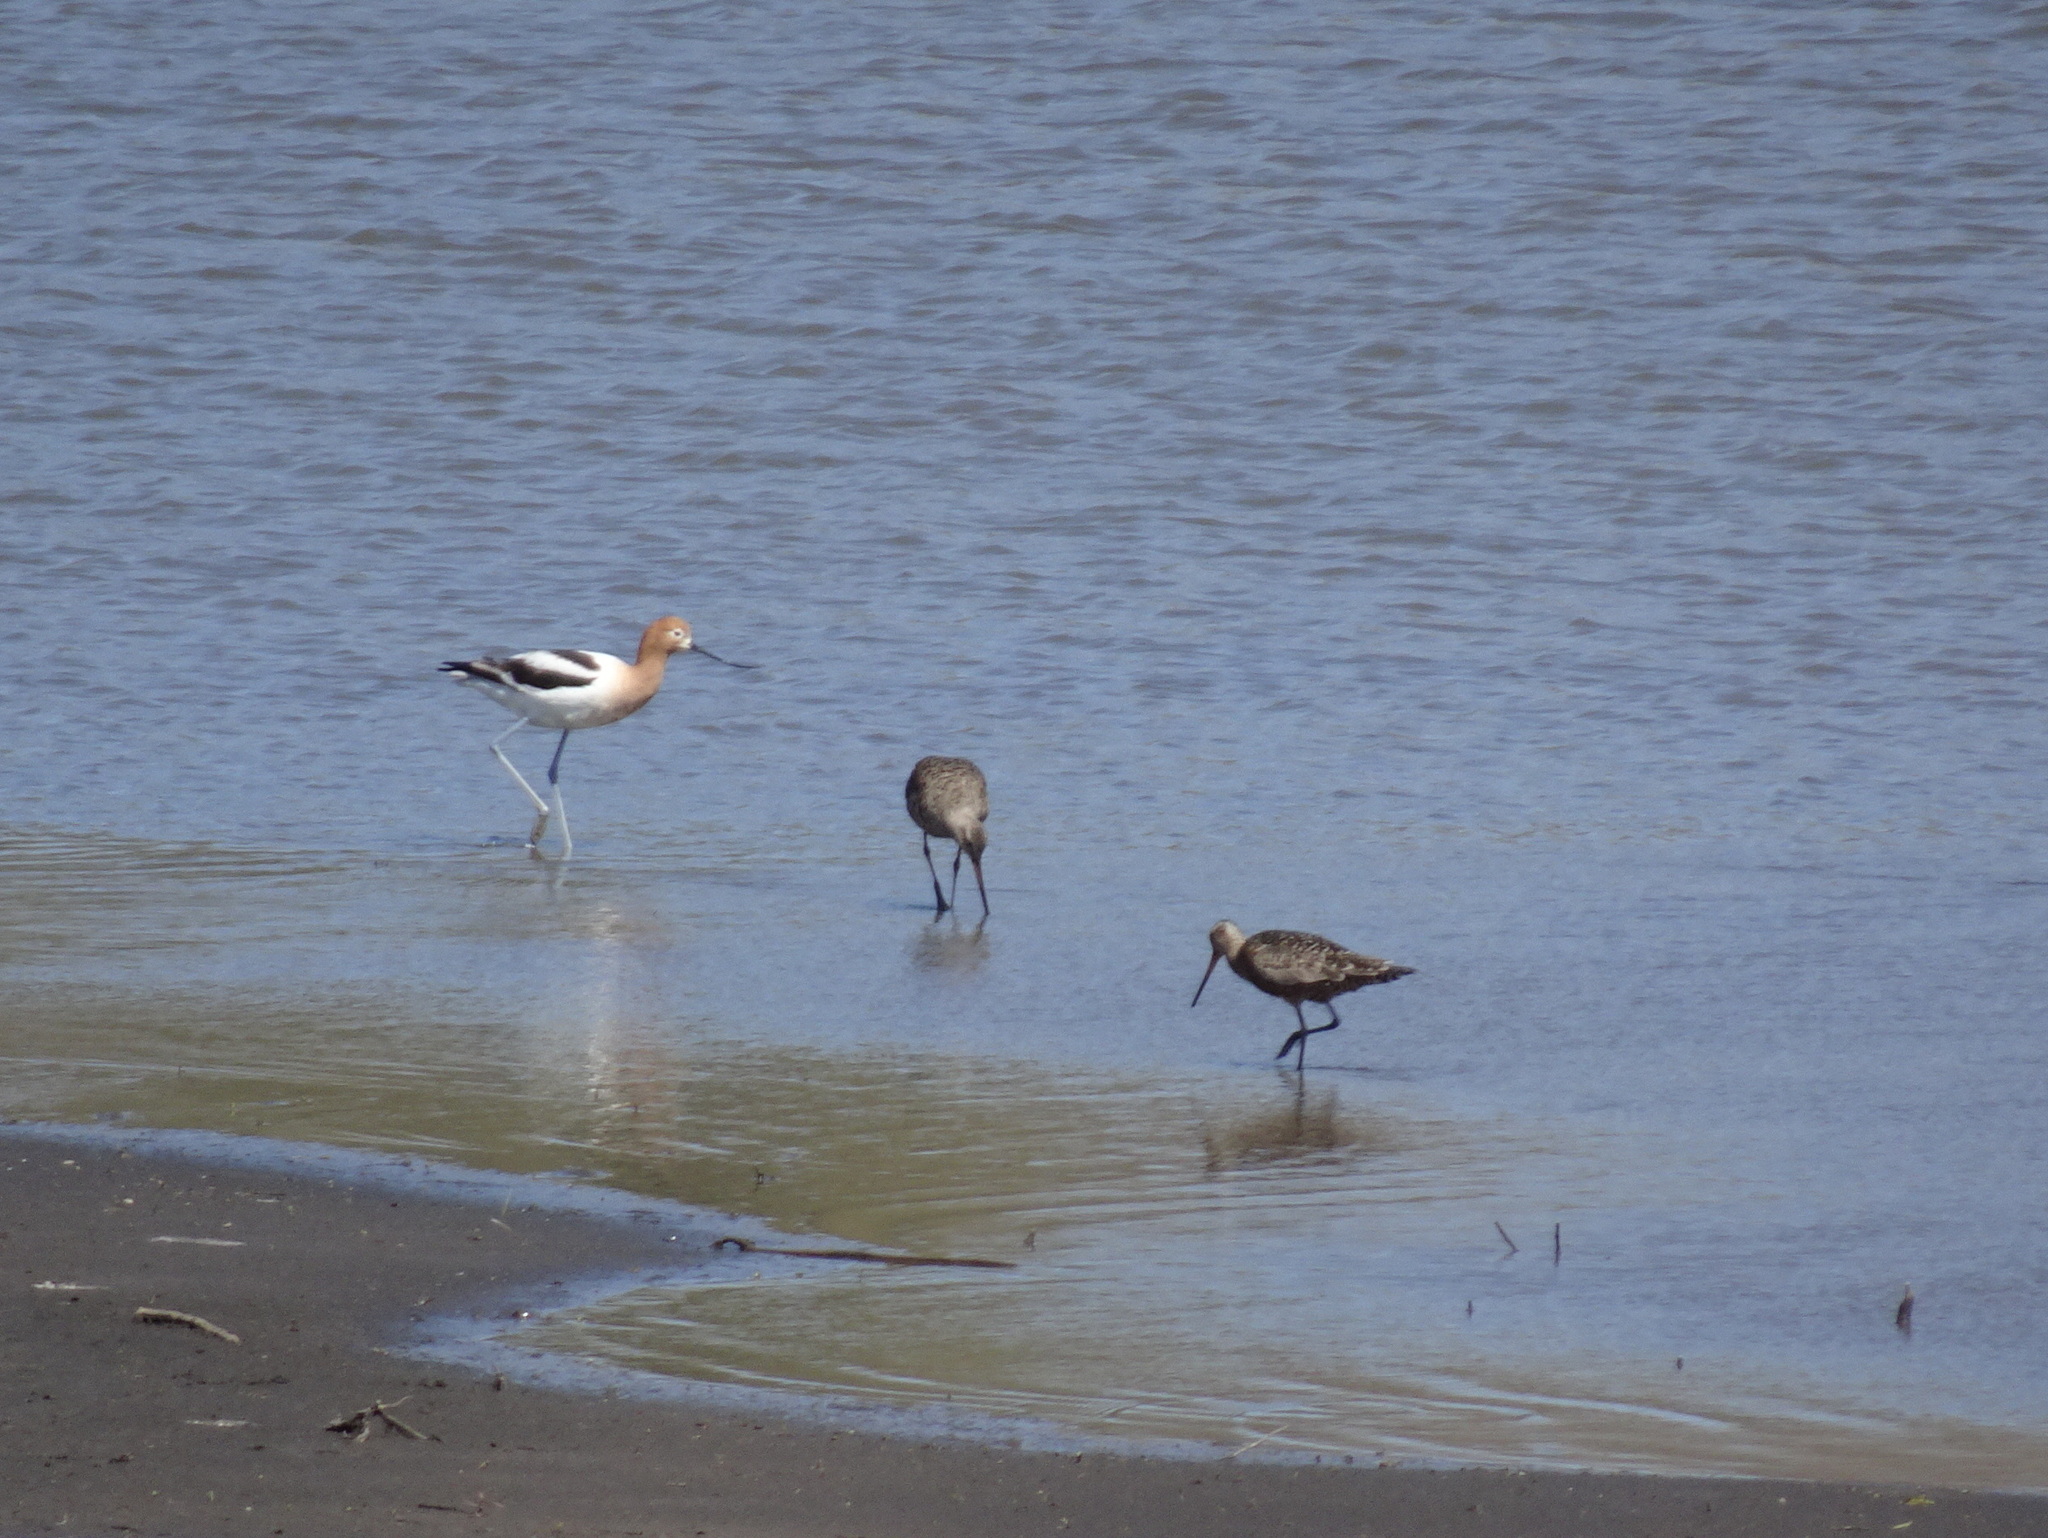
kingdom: Animalia
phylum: Chordata
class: Aves
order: Charadriiformes
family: Recurvirostridae
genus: Recurvirostra
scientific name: Recurvirostra americana
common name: American avocet
